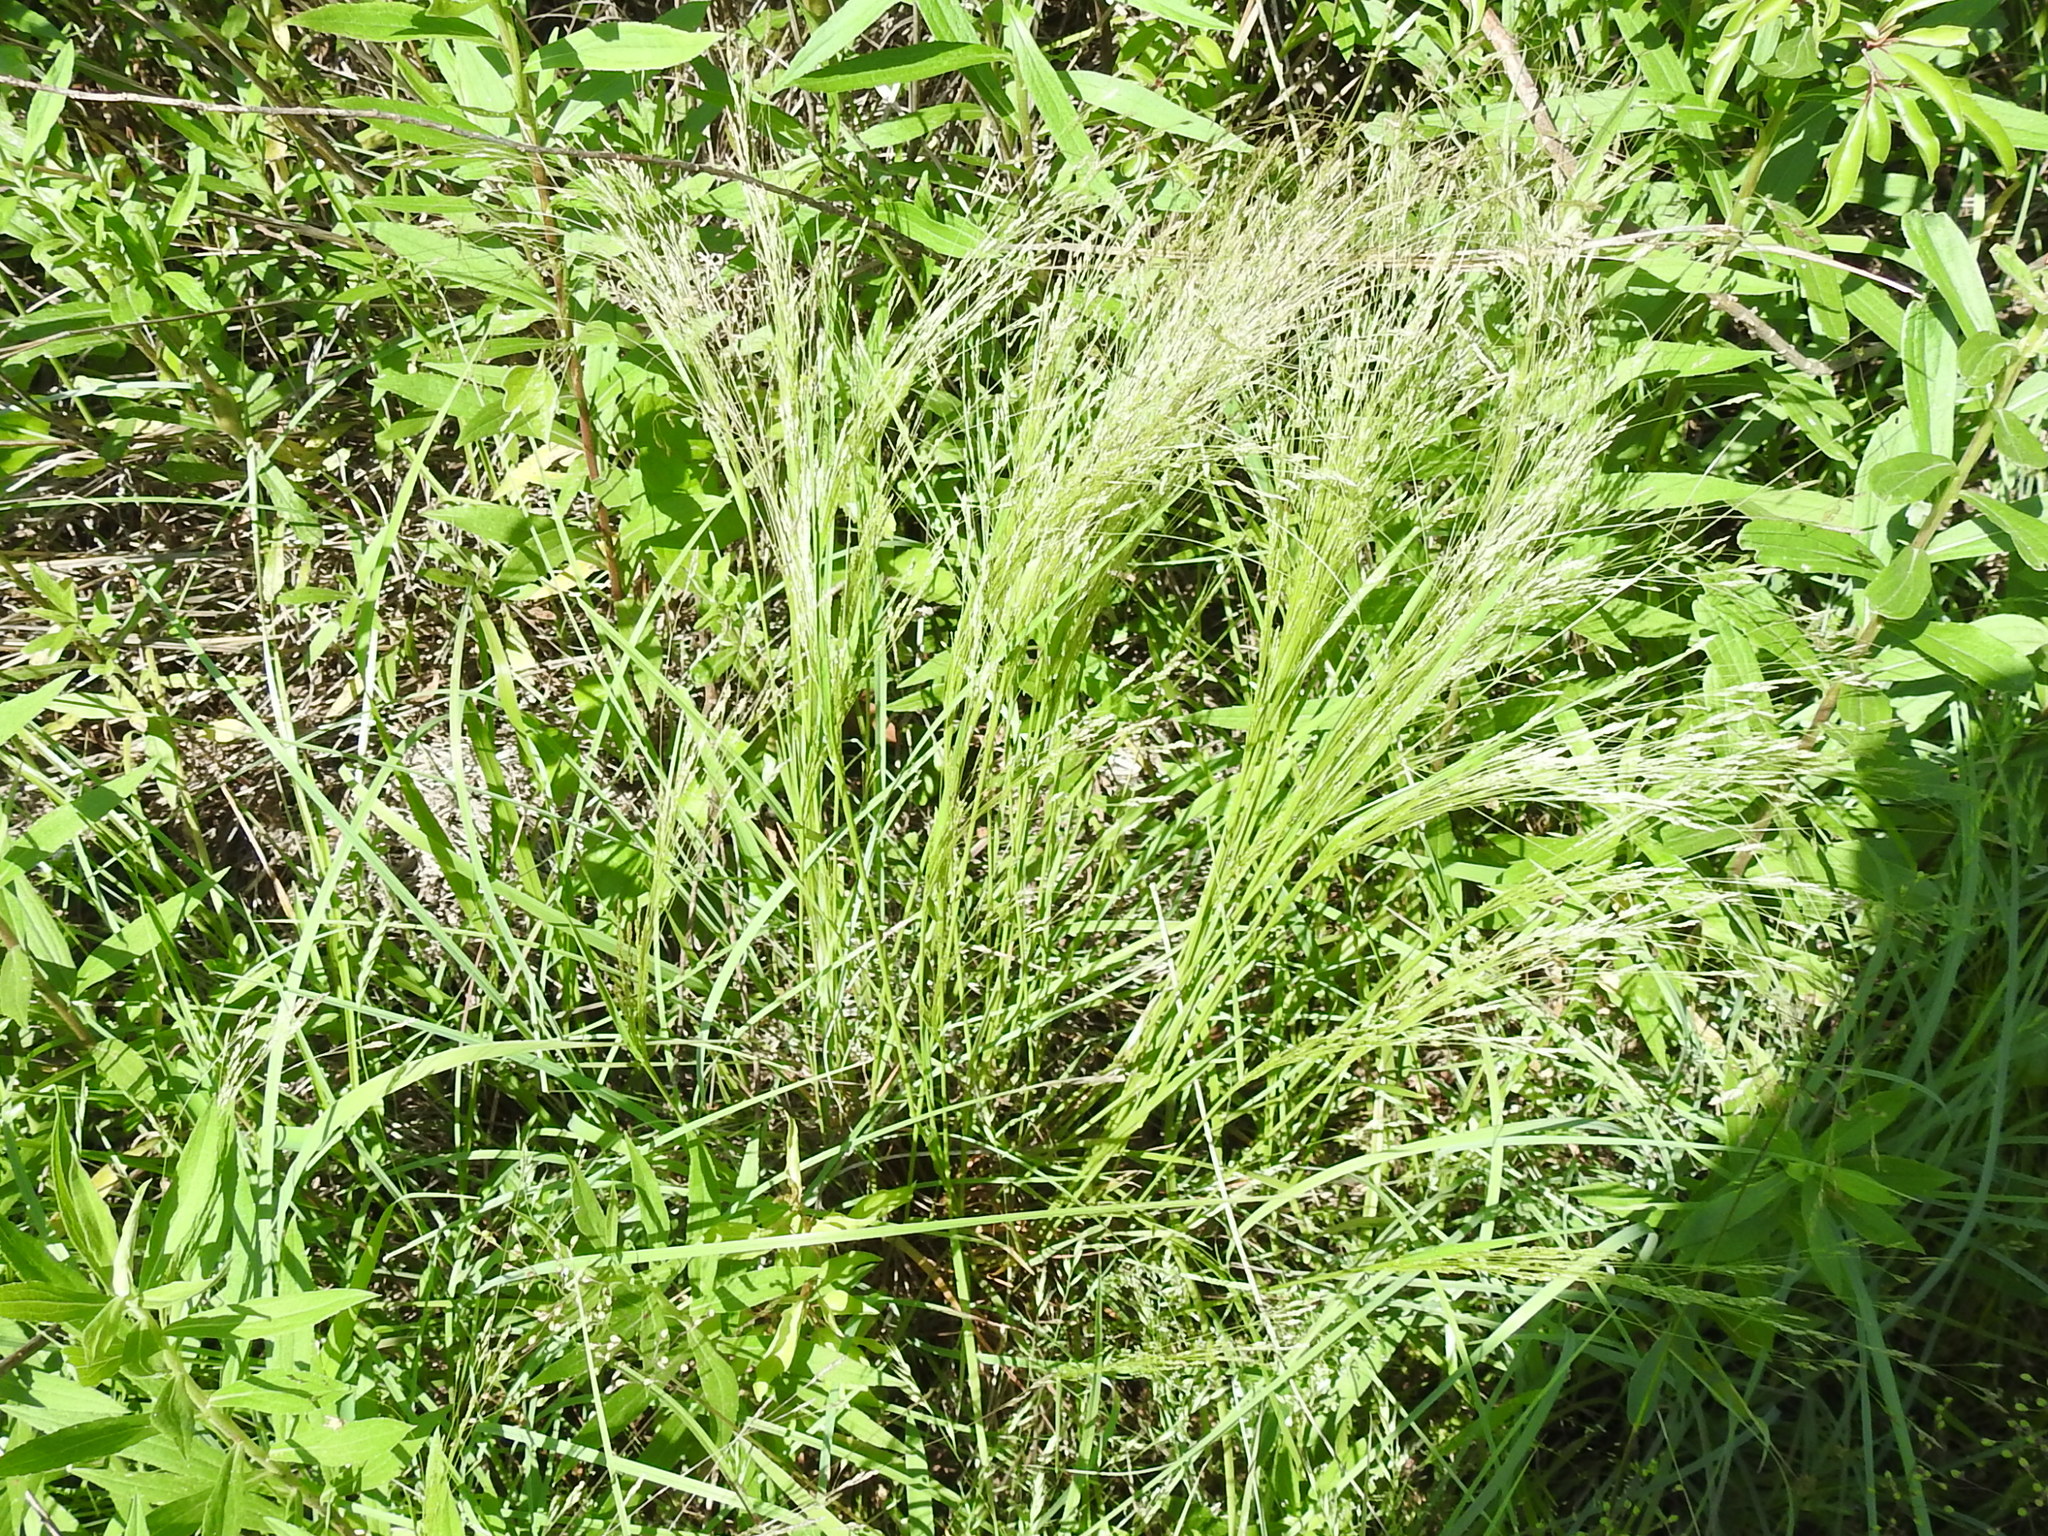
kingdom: Plantae
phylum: Tracheophyta
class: Liliopsida
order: Poales
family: Poaceae
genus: Agrostis
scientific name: Agrostis hyemalis
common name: Small bent
